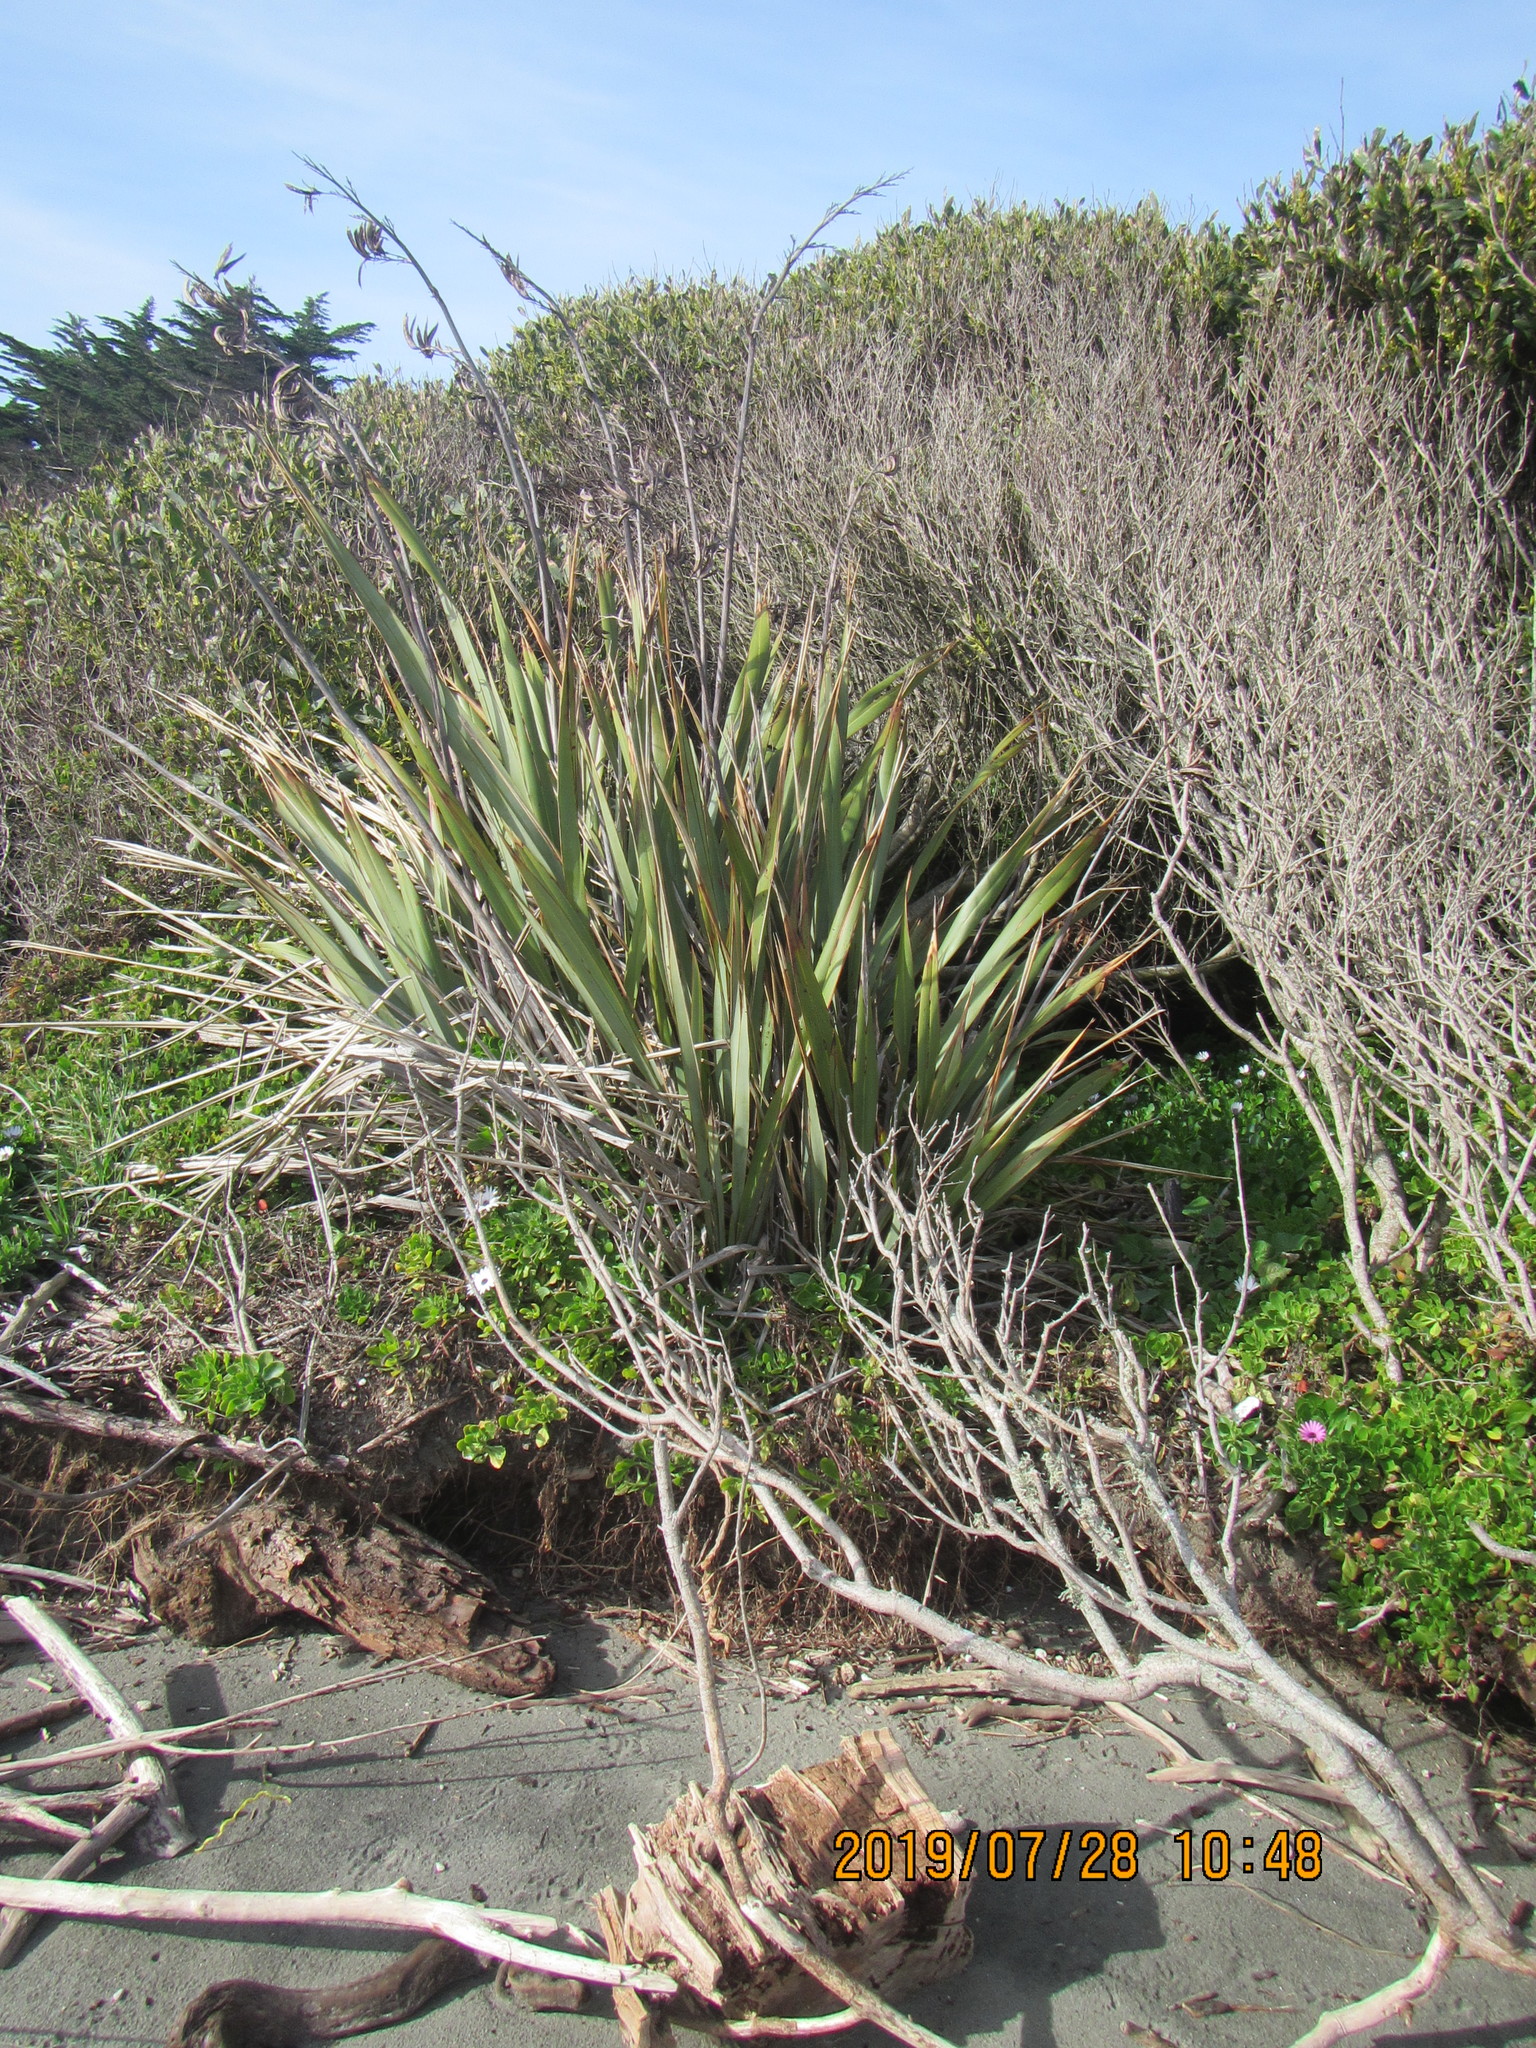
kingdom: Plantae
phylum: Tracheophyta
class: Liliopsida
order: Asparagales
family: Asphodelaceae
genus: Phormium
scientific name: Phormium tenax
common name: New zealand flax
